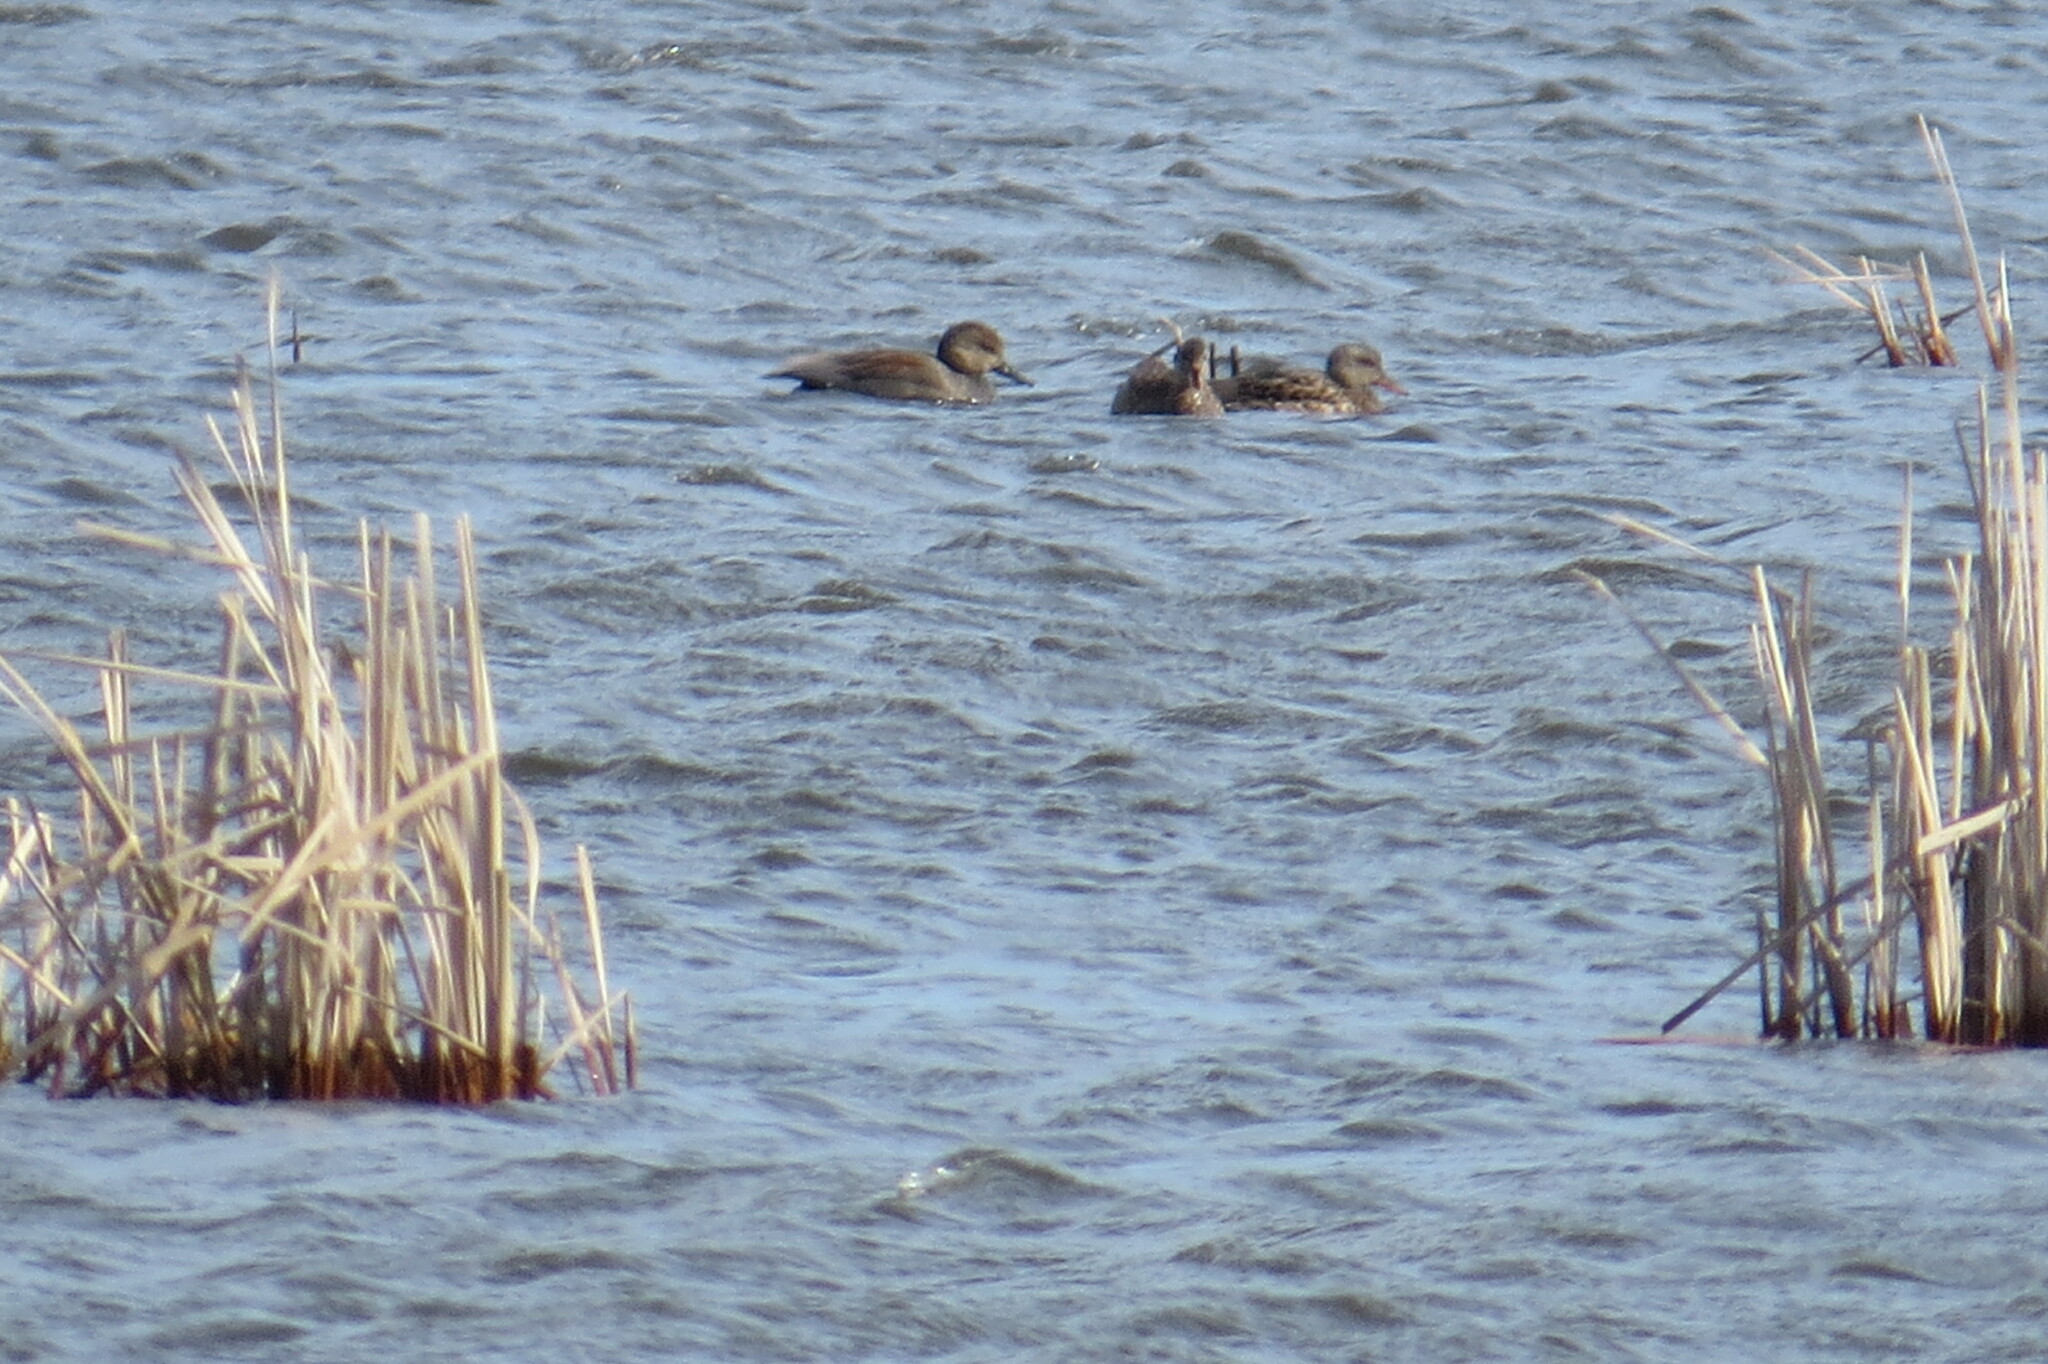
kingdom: Animalia
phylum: Chordata
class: Aves
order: Anseriformes
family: Anatidae
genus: Mareca
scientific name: Mareca strepera
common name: Gadwall
